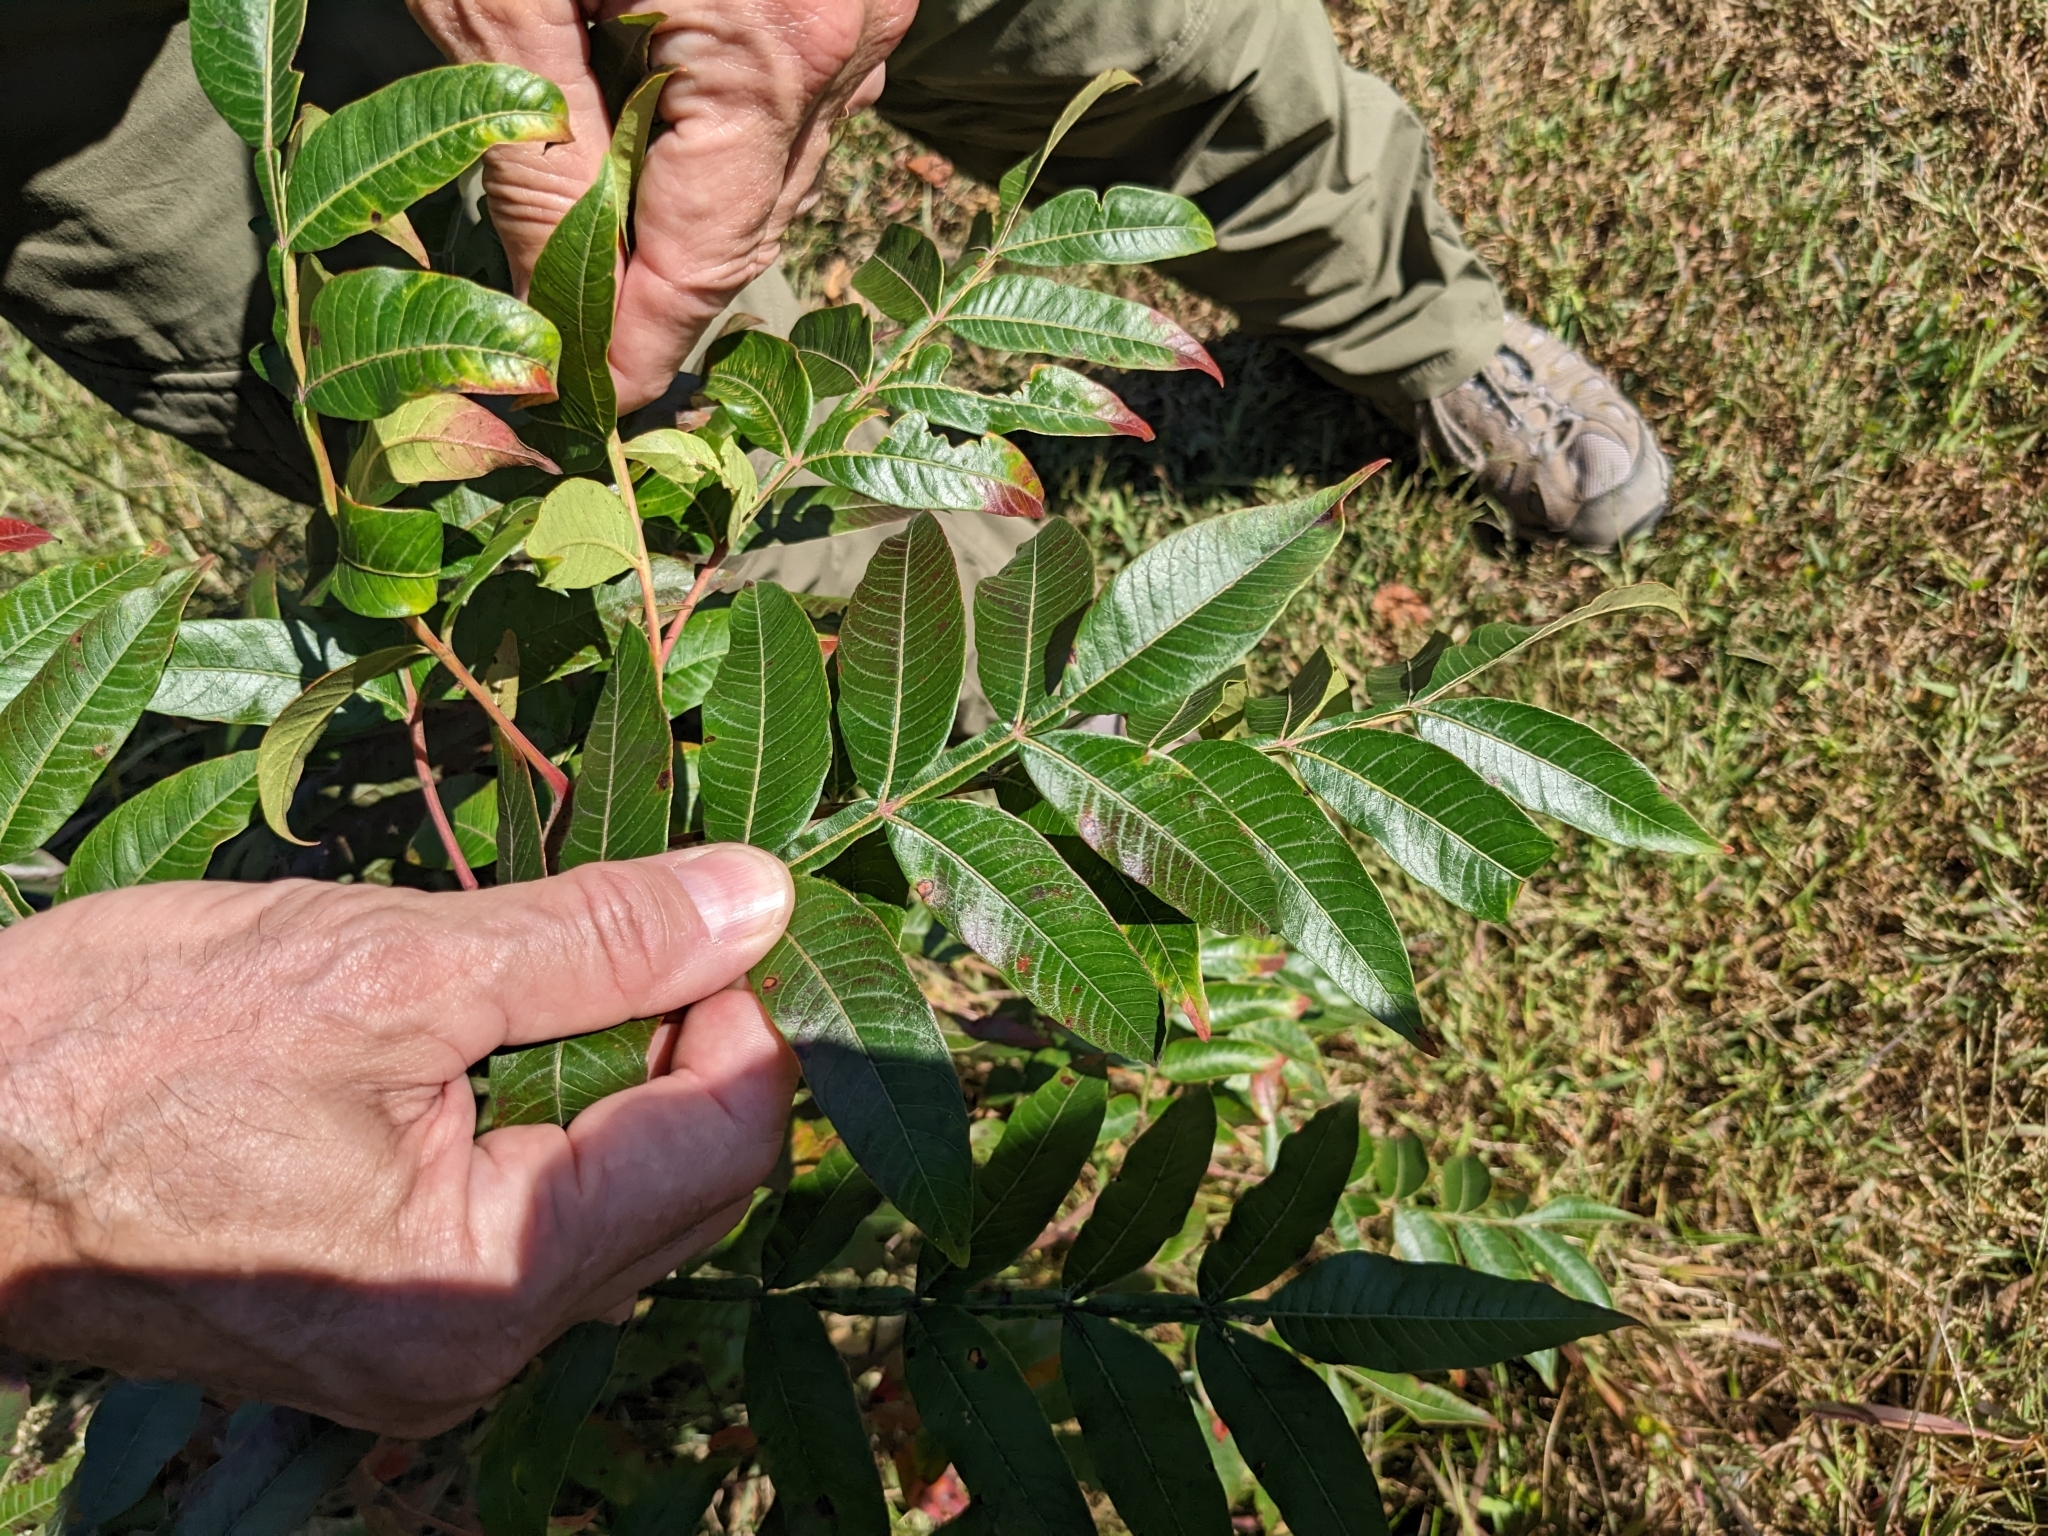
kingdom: Plantae
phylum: Tracheophyta
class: Magnoliopsida
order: Sapindales
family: Anacardiaceae
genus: Rhus
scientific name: Rhus copallina
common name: Shining sumac
